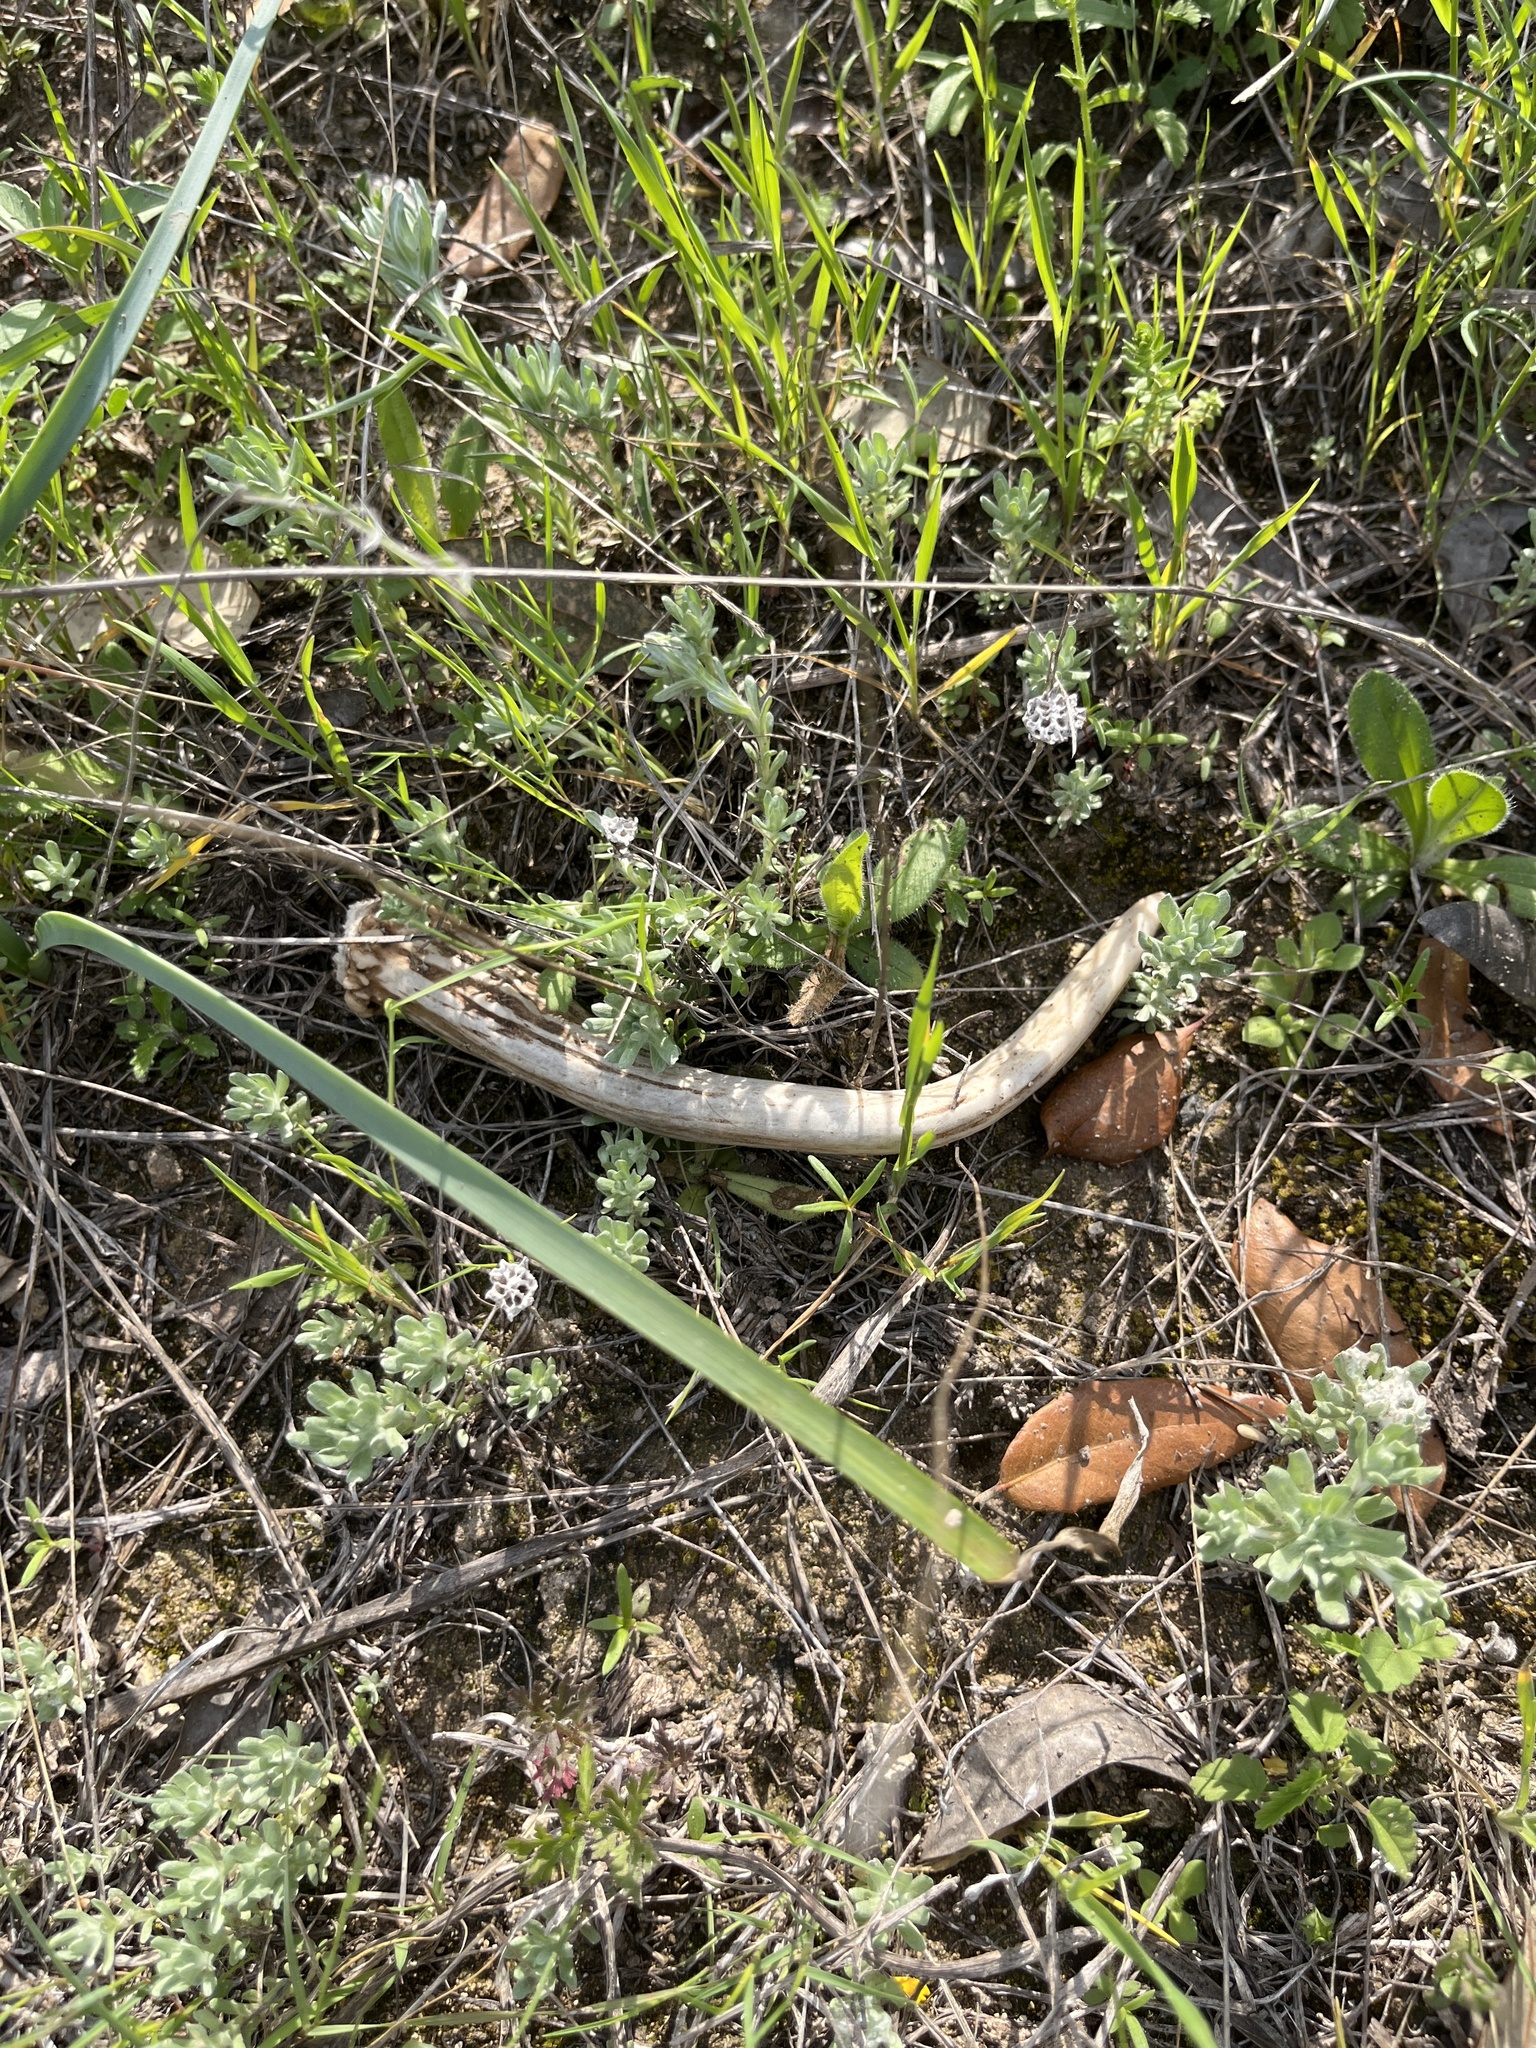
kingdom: Animalia
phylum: Chordata
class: Mammalia
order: Artiodactyla
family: Cervidae
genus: Odocoileus
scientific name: Odocoileus virginianus
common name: White-tailed deer
